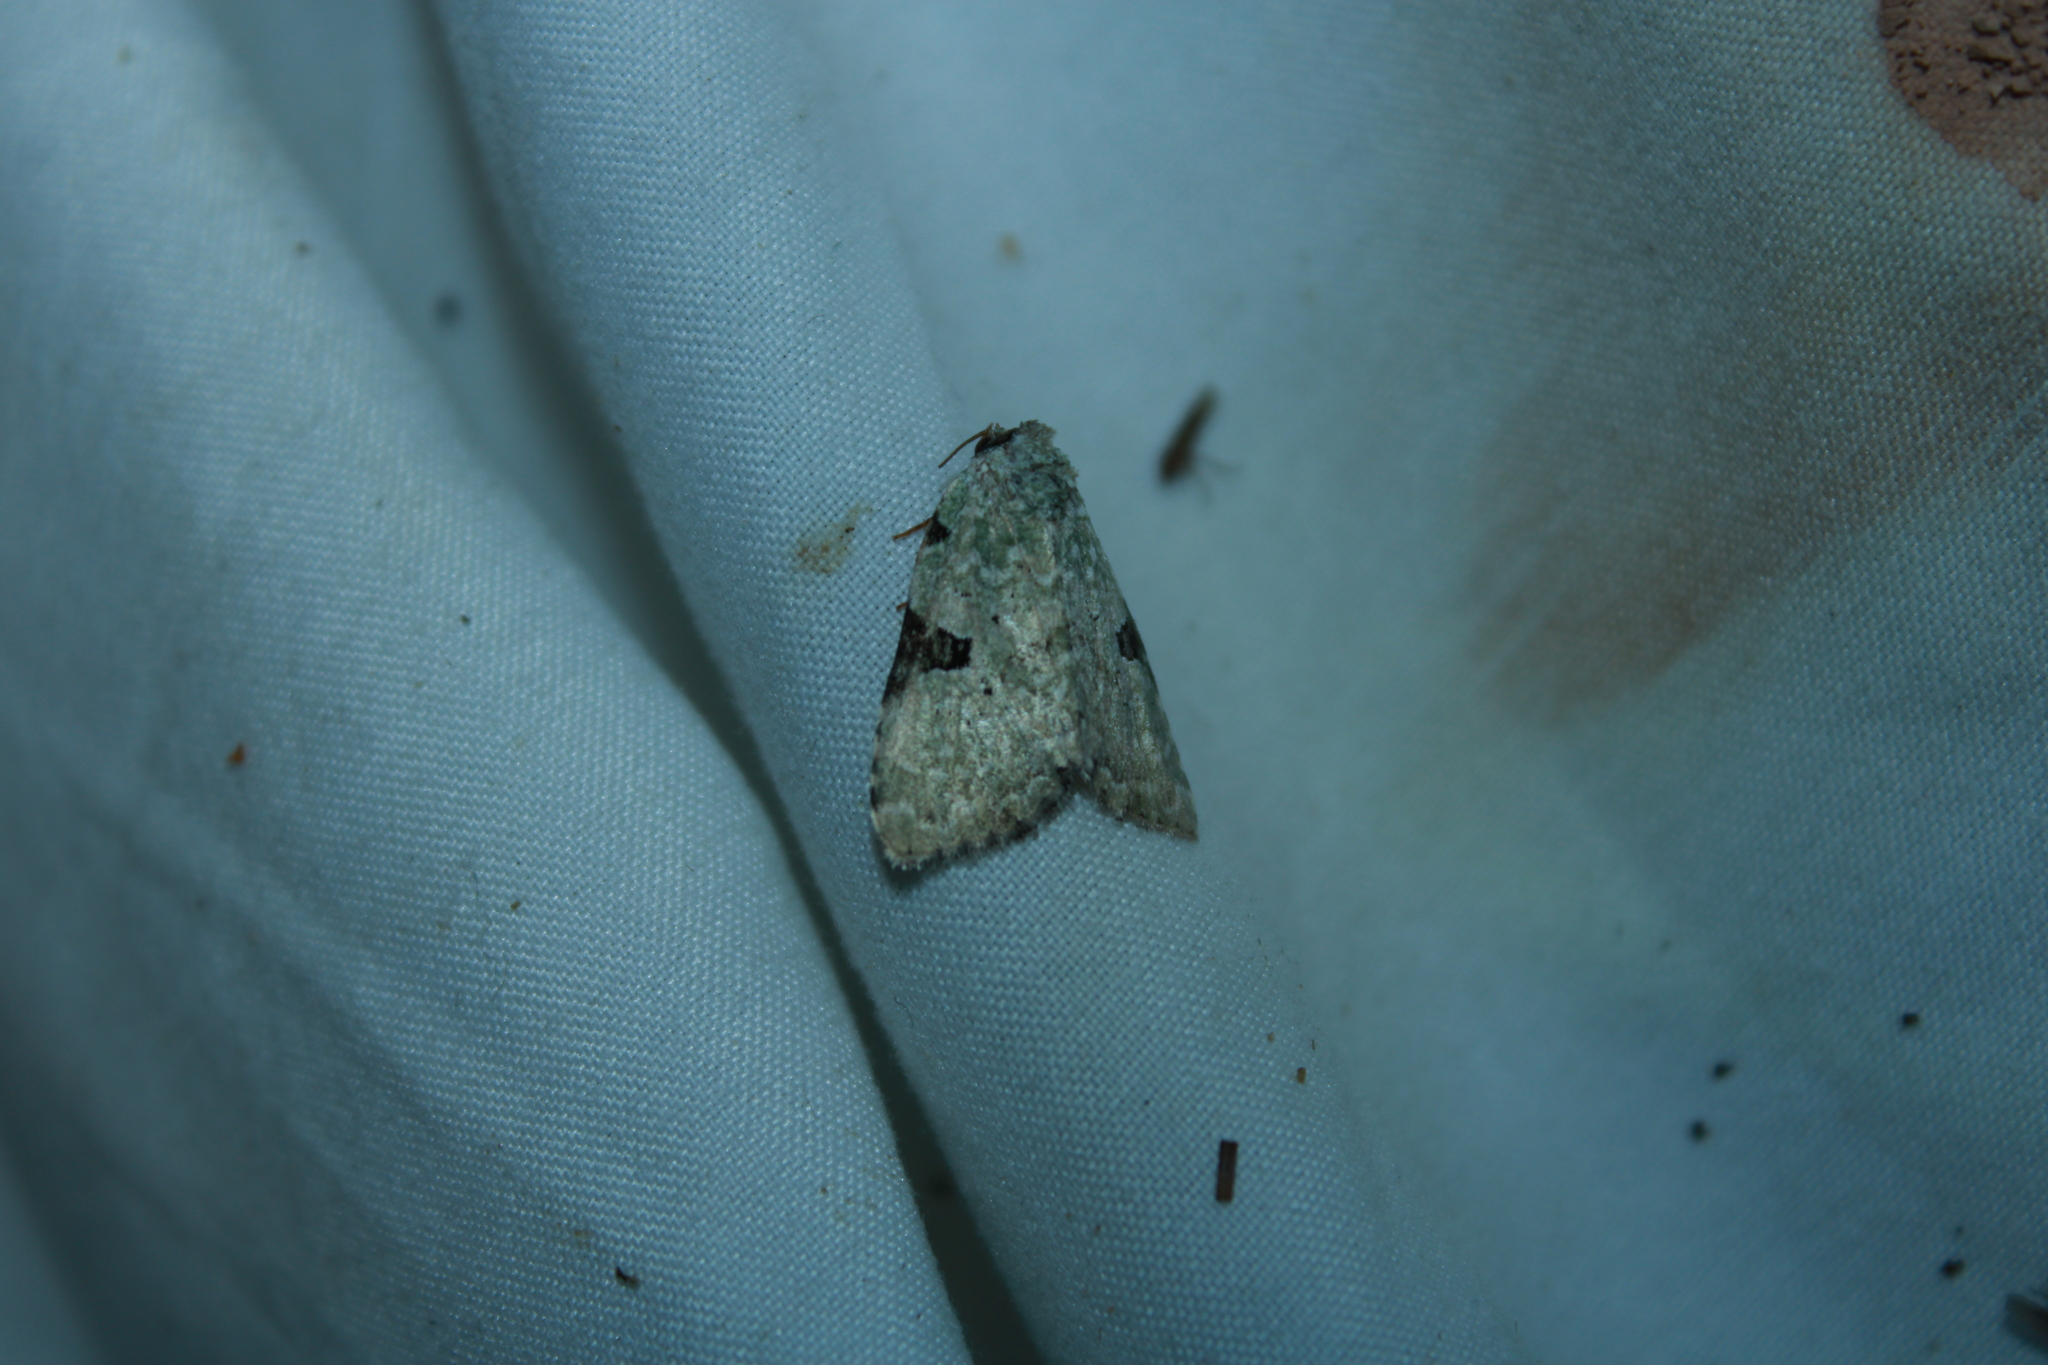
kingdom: Animalia
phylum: Arthropoda
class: Insecta
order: Lepidoptera
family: Noctuidae
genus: Leuconycta
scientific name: Leuconycta diphteroides
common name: Green leuconycta moth
